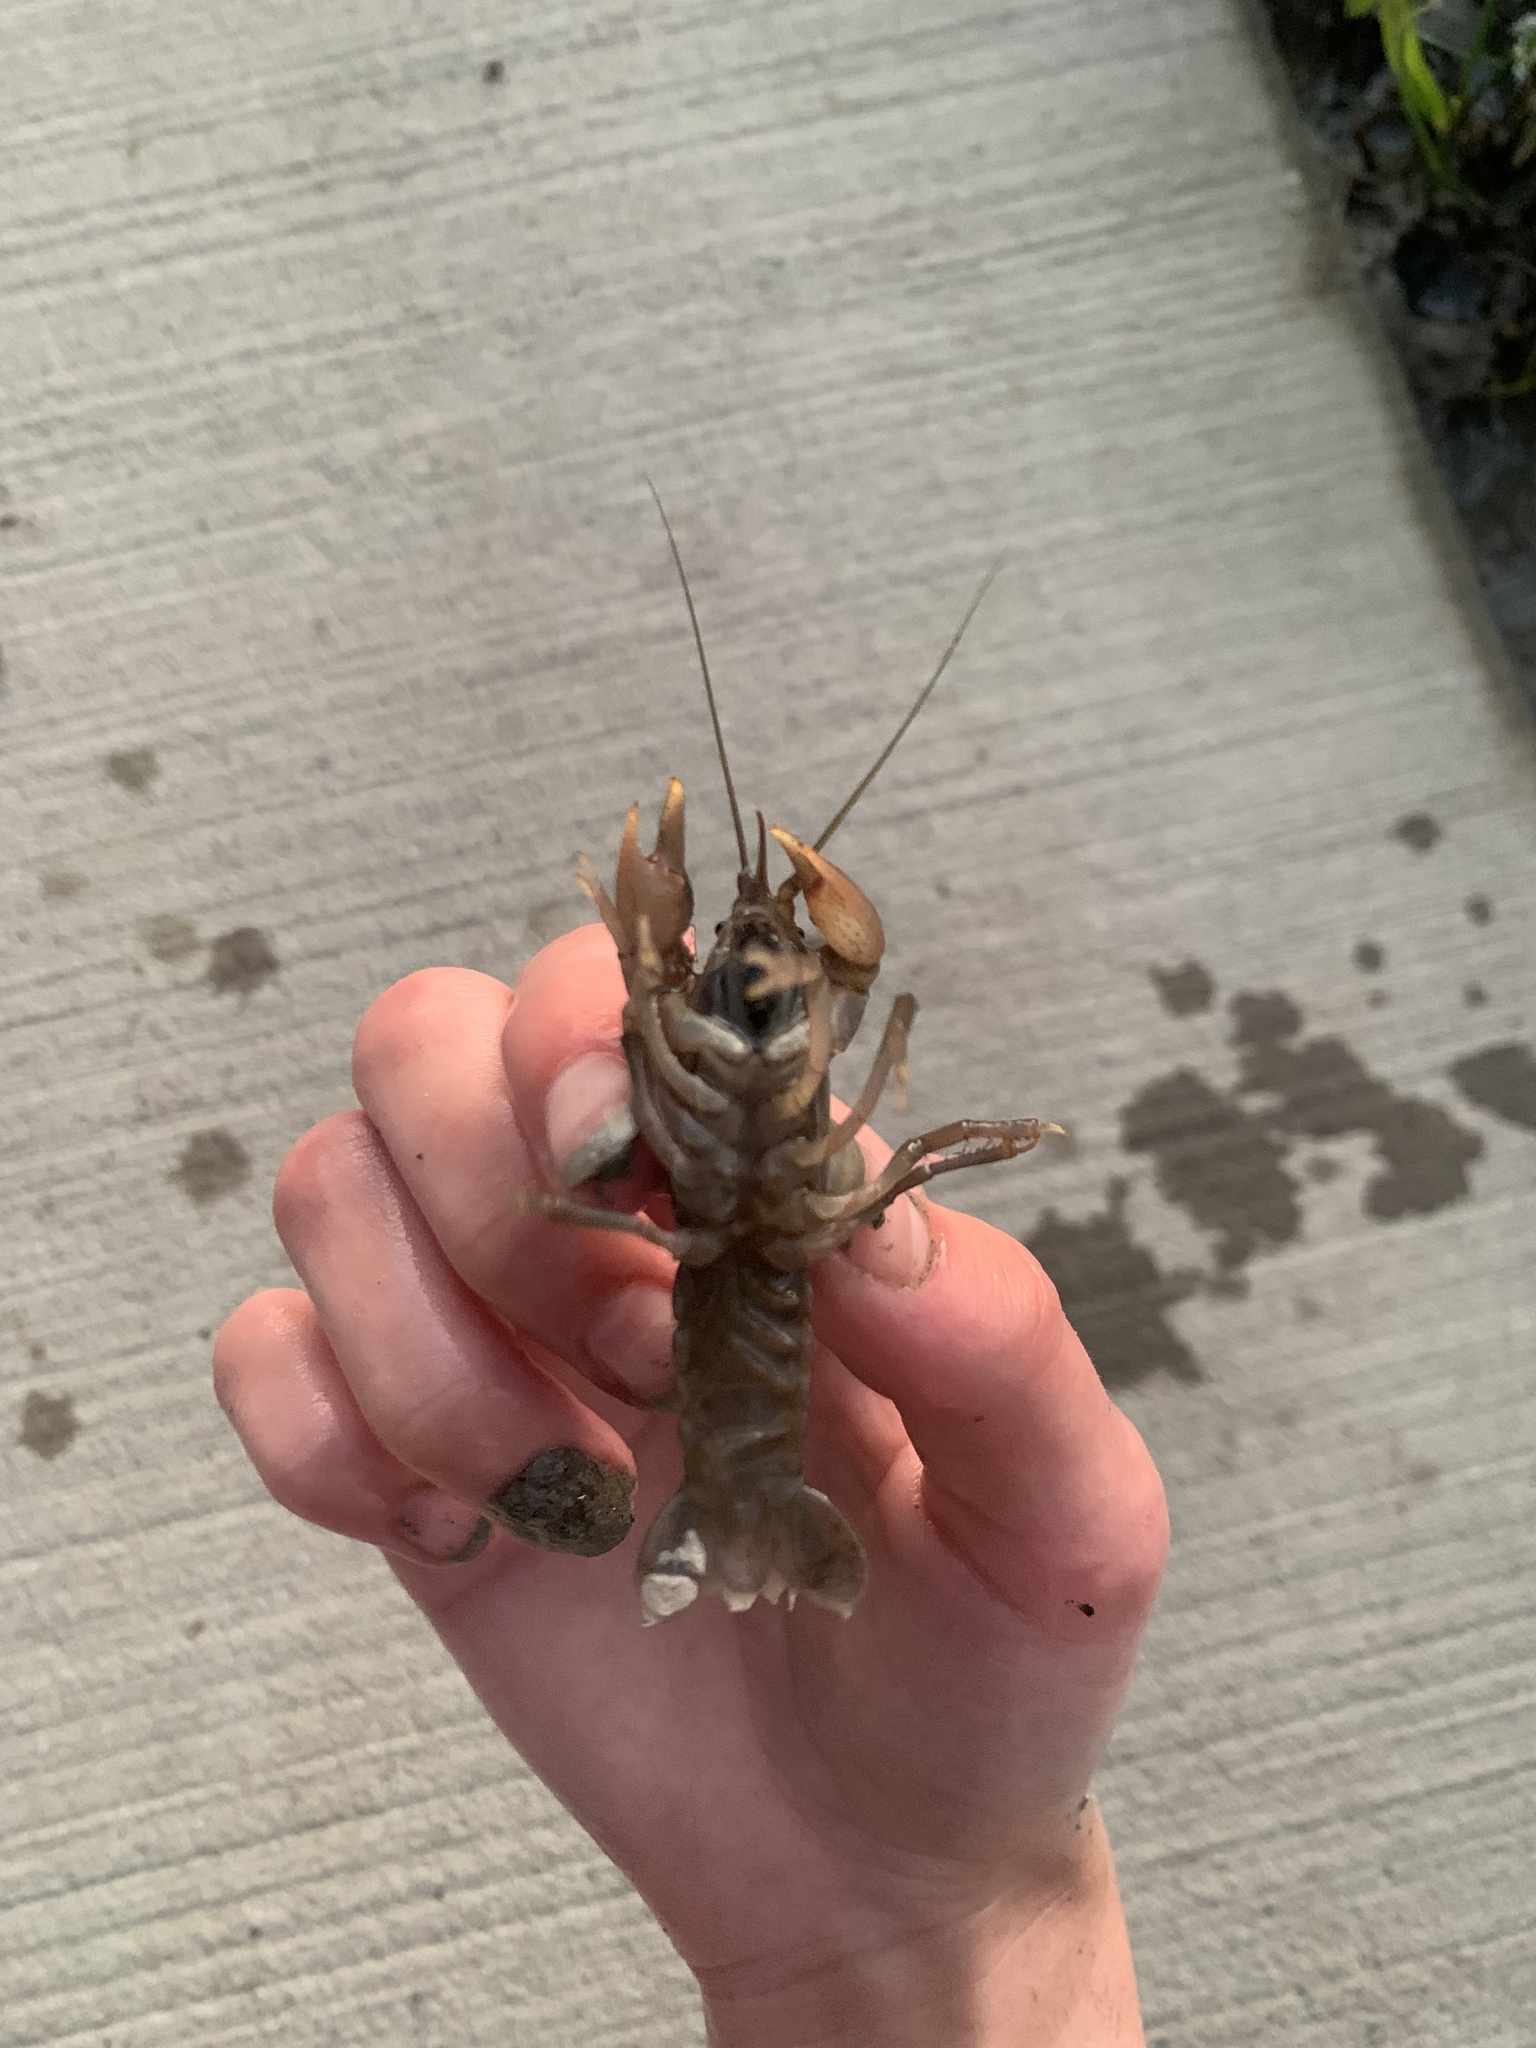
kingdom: Animalia
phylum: Arthropoda
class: Malacostraca
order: Decapoda
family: Cambaridae
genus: Fallicambarus
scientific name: Fallicambarus houstonensis
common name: Houston burrowing crayfish
